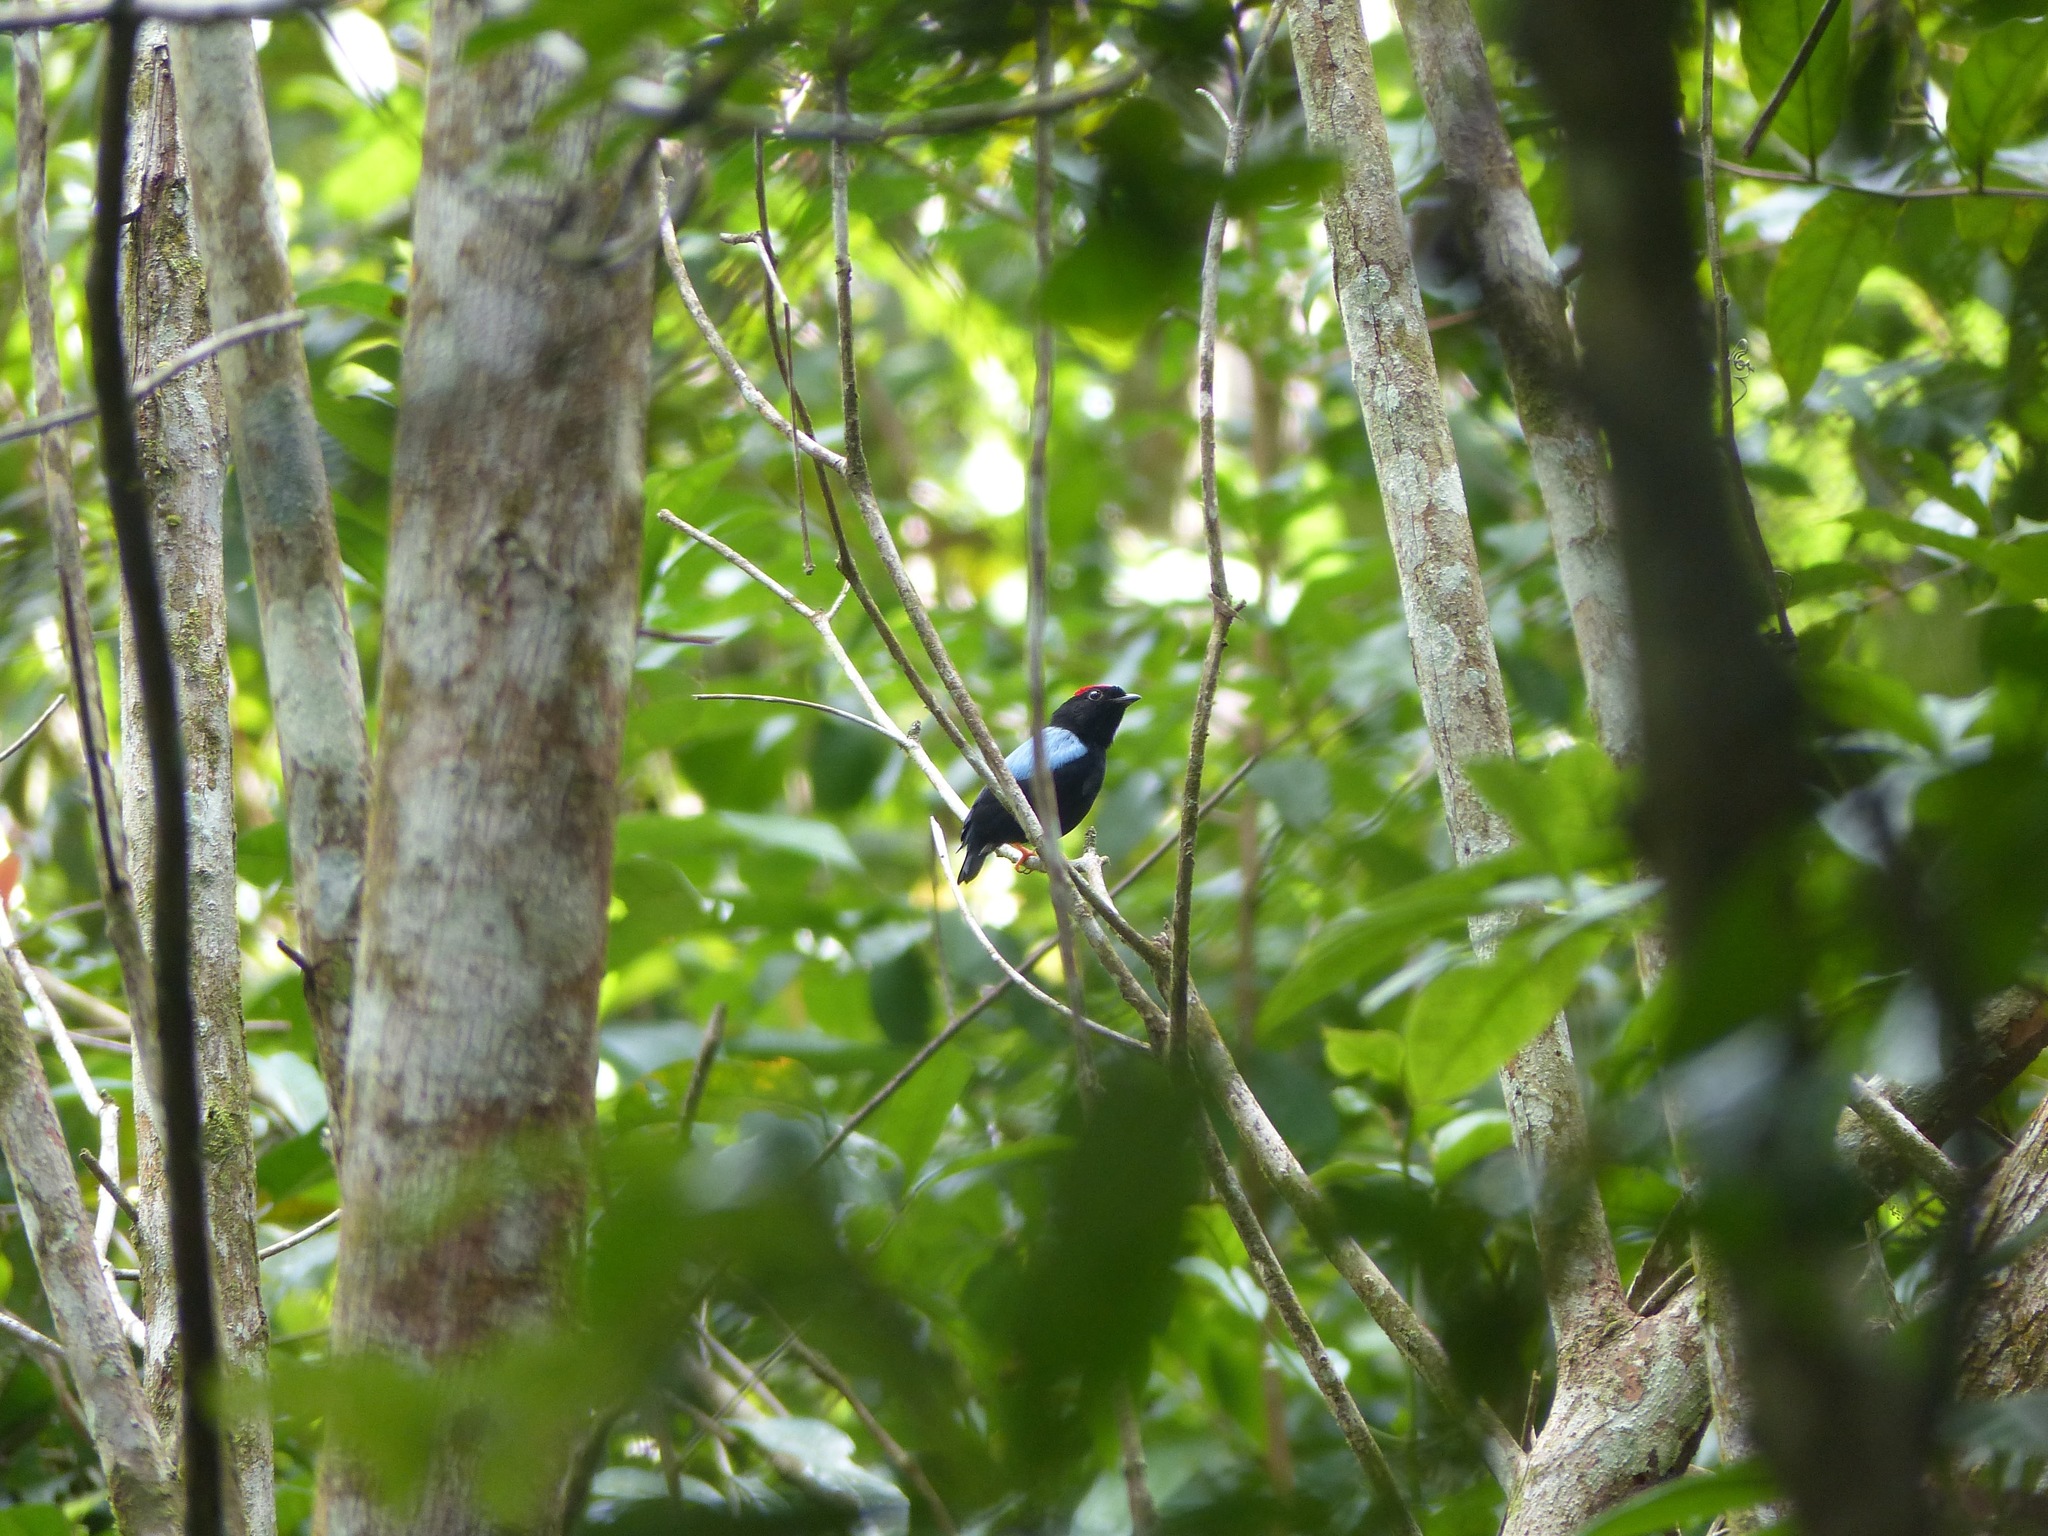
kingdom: Animalia
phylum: Chordata
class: Aves
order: Passeriformes
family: Pipridae
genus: Chiroxiphia
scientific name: Chiroxiphia pareola
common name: Blue-backed manakin
